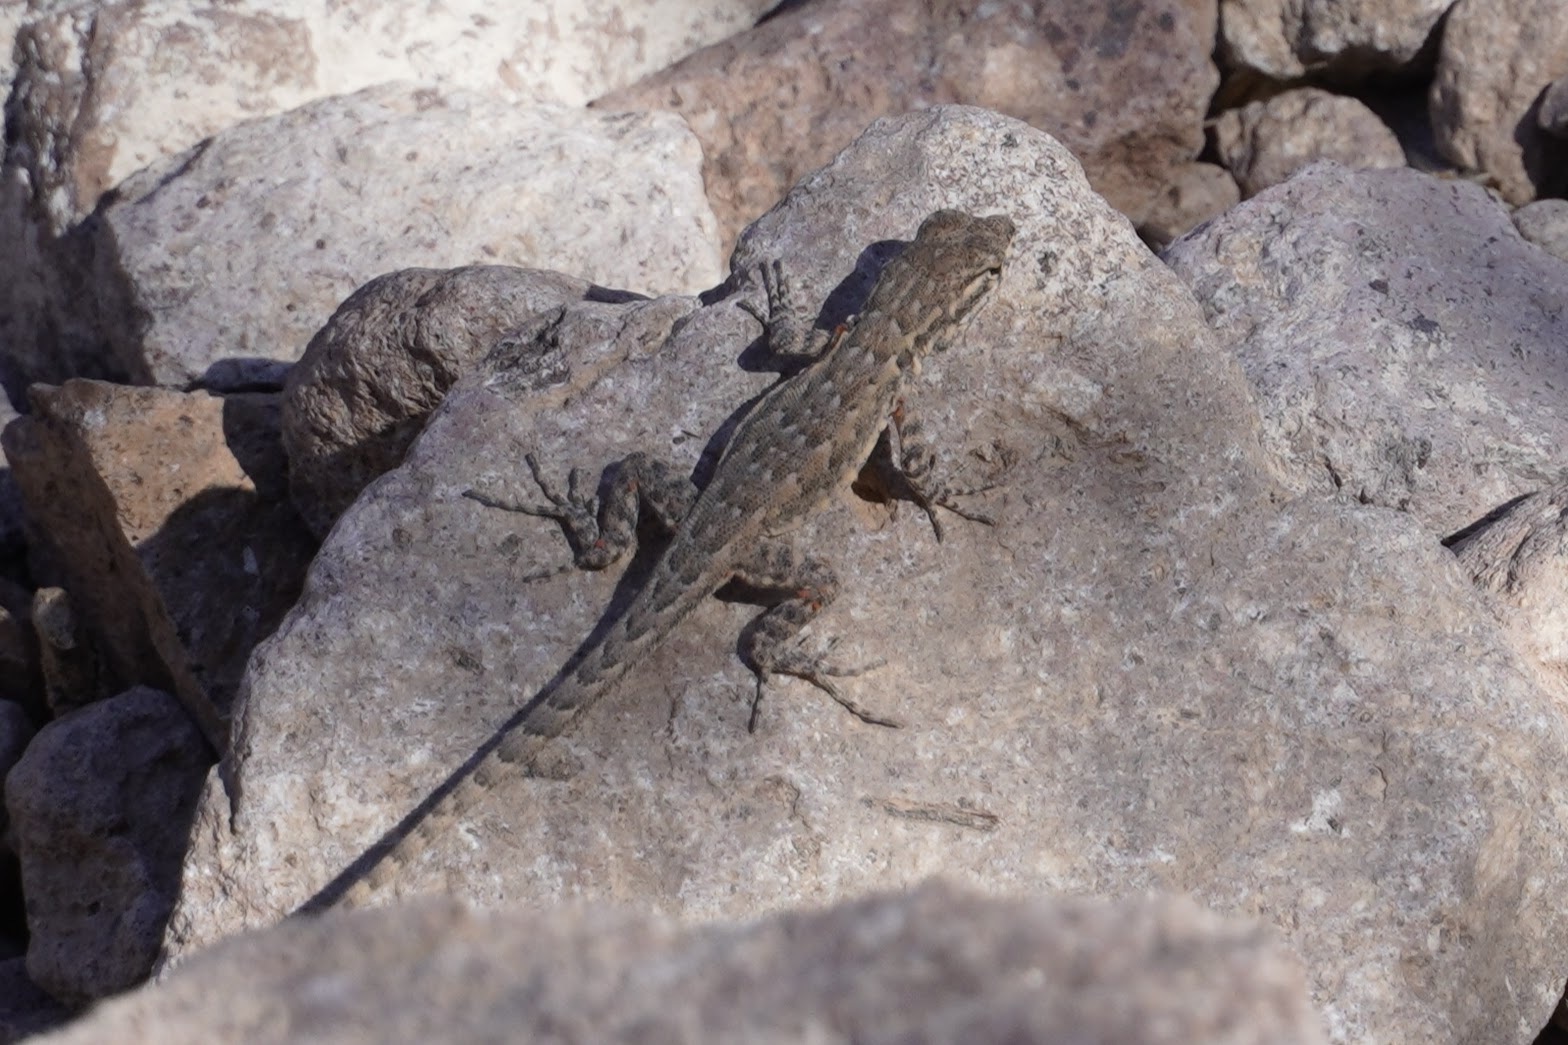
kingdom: Animalia
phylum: Chordata
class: Squamata
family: Phrynosomatidae
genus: Uta
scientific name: Uta stansburiana
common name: Side-blotched lizard
